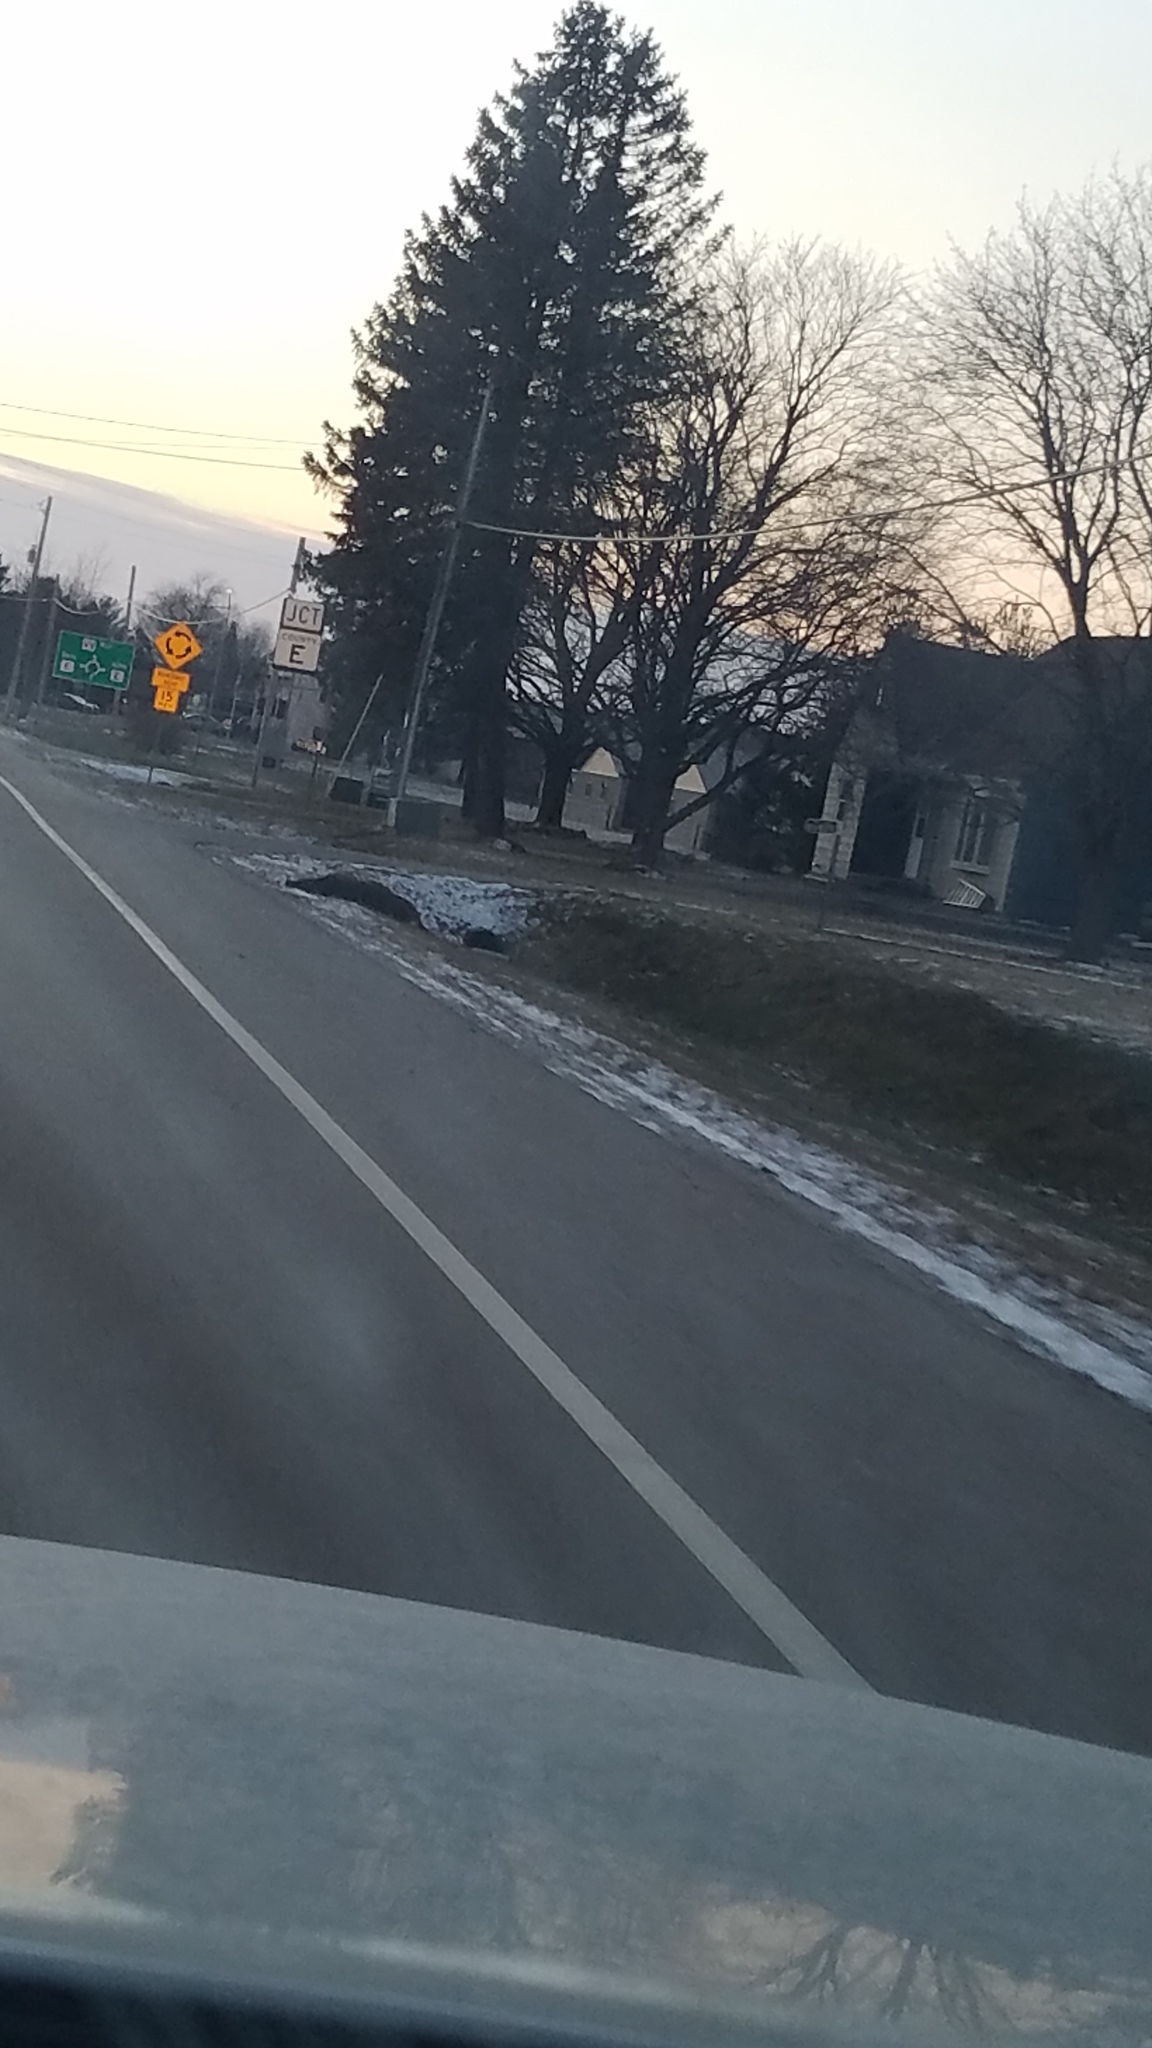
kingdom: Animalia
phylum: Chordata
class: Mammalia
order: Artiodactyla
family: Cervidae
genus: Odocoileus
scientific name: Odocoileus virginianus
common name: White-tailed deer
